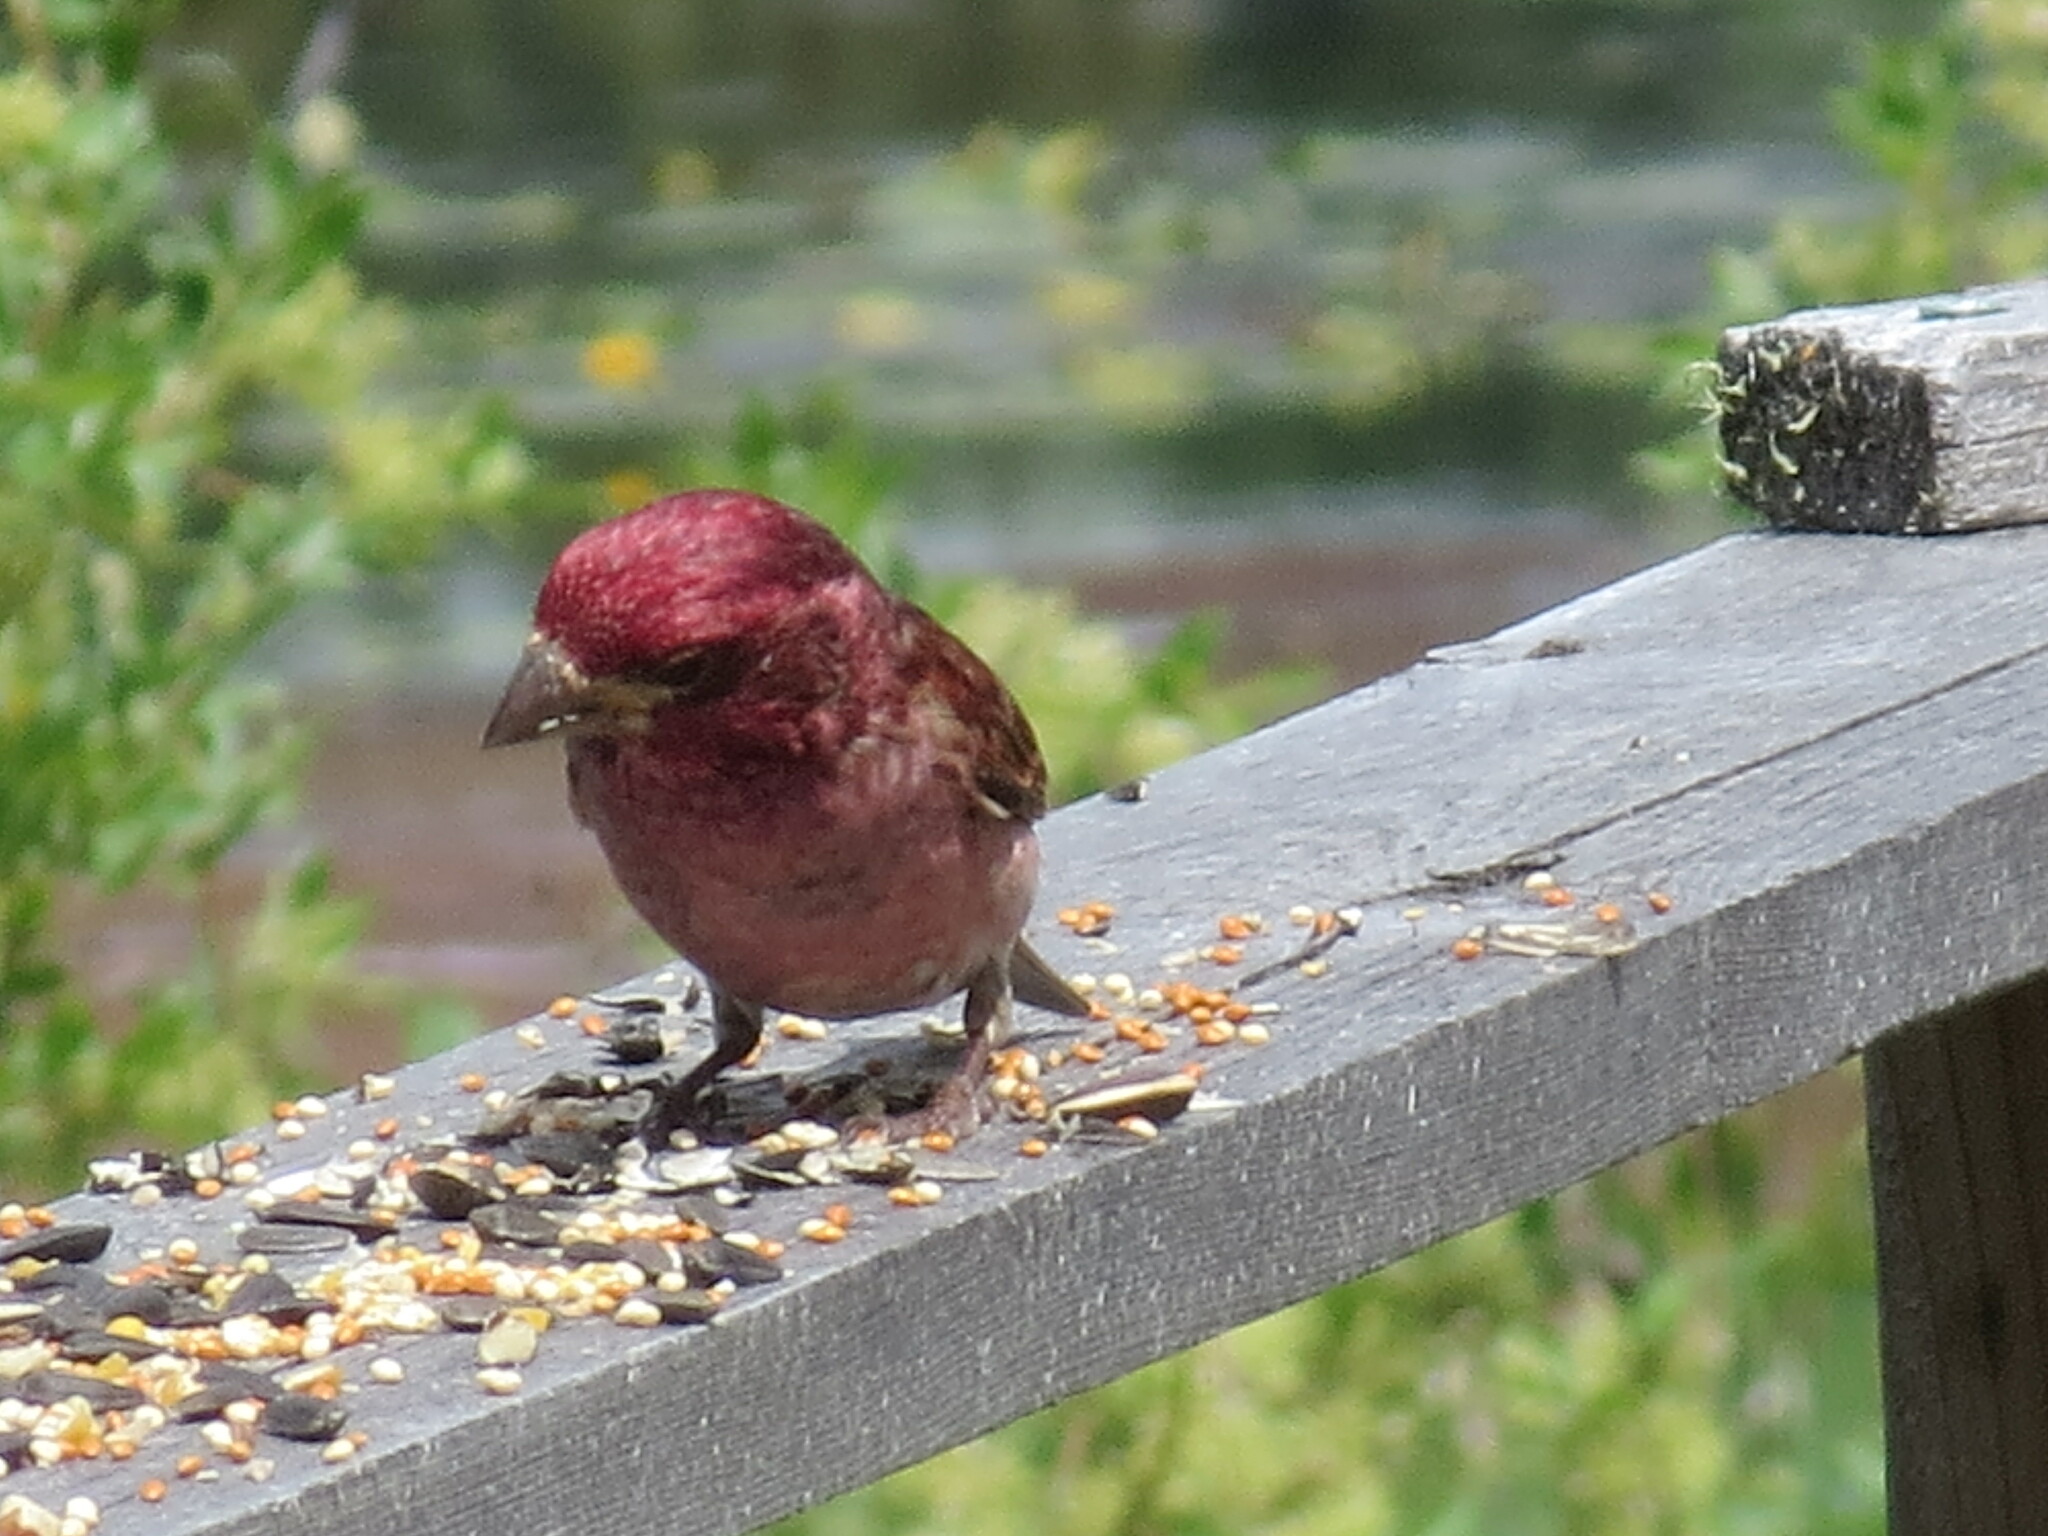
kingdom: Animalia
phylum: Chordata
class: Aves
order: Passeriformes
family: Fringillidae
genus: Haemorhous
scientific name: Haemorhous purpureus
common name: Purple finch
